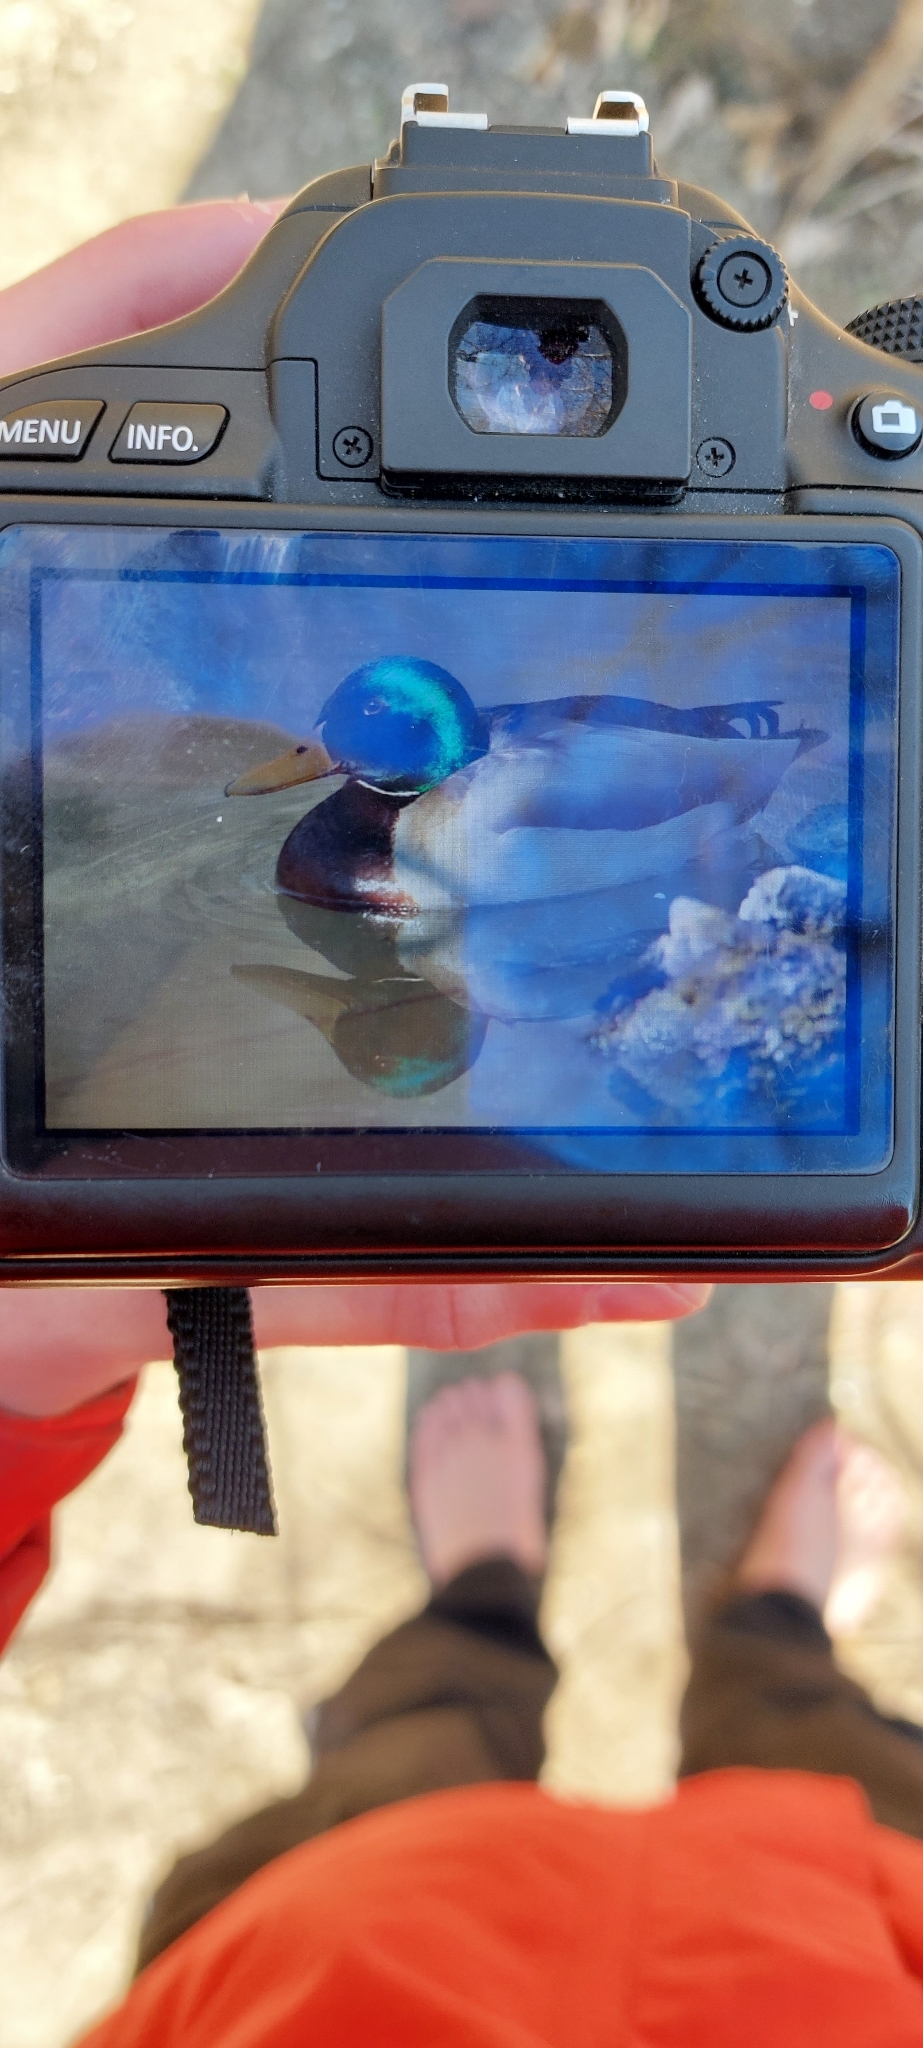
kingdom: Animalia
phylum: Chordata
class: Aves
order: Anseriformes
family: Anatidae
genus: Anas
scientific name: Anas platyrhynchos
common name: Mallard
